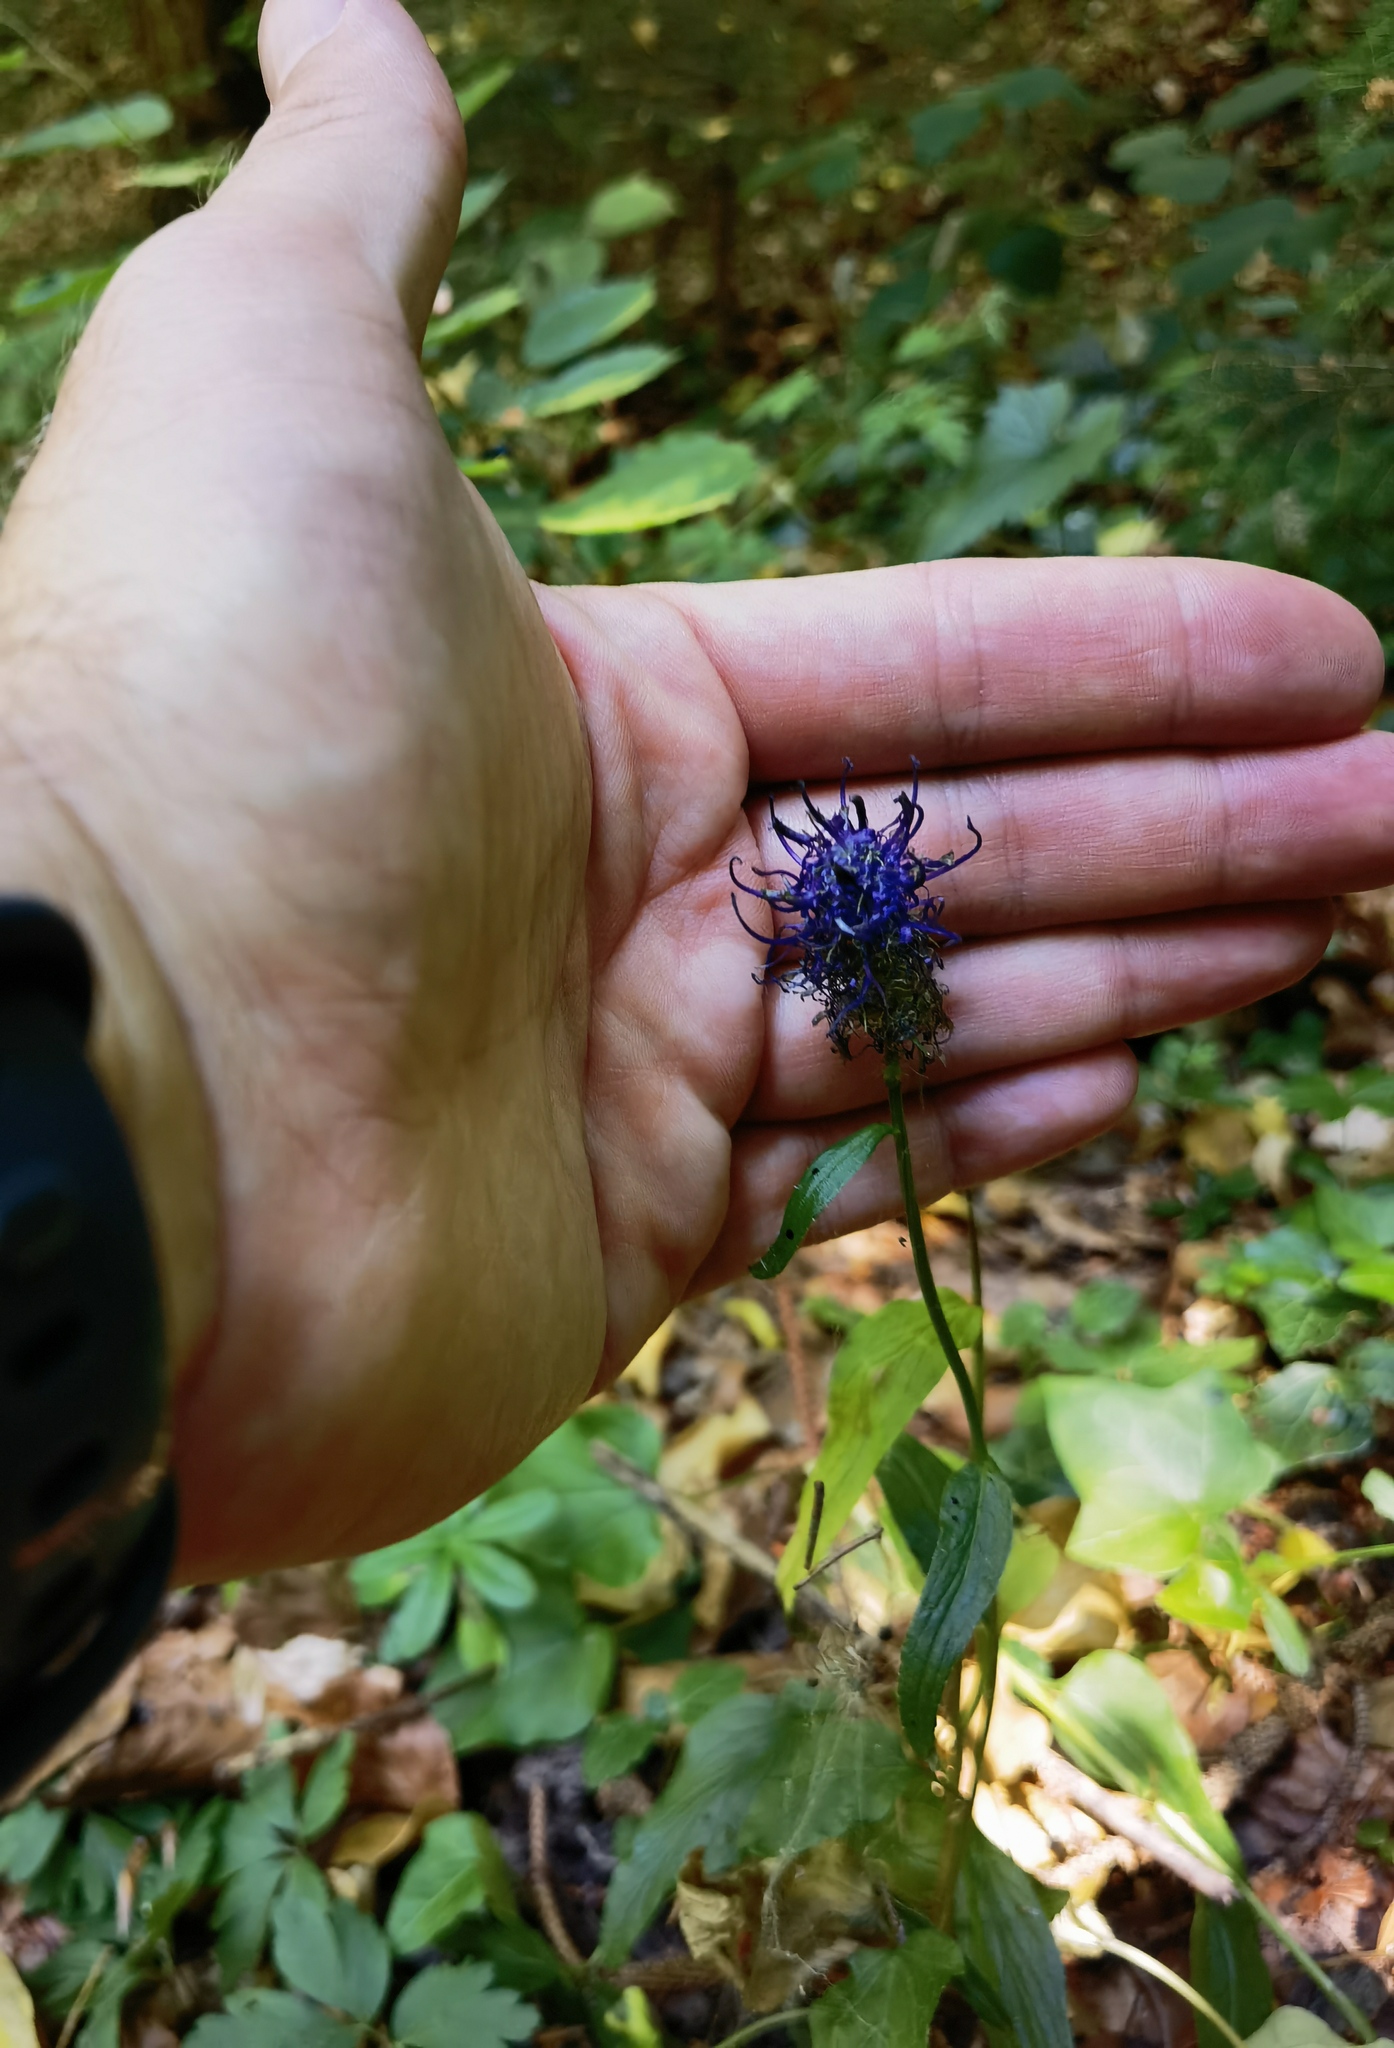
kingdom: Plantae
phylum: Tracheophyta
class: Magnoliopsida
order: Asterales
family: Campanulaceae
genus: Phyteuma
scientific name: Phyteuma nigrum
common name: Black rampion
